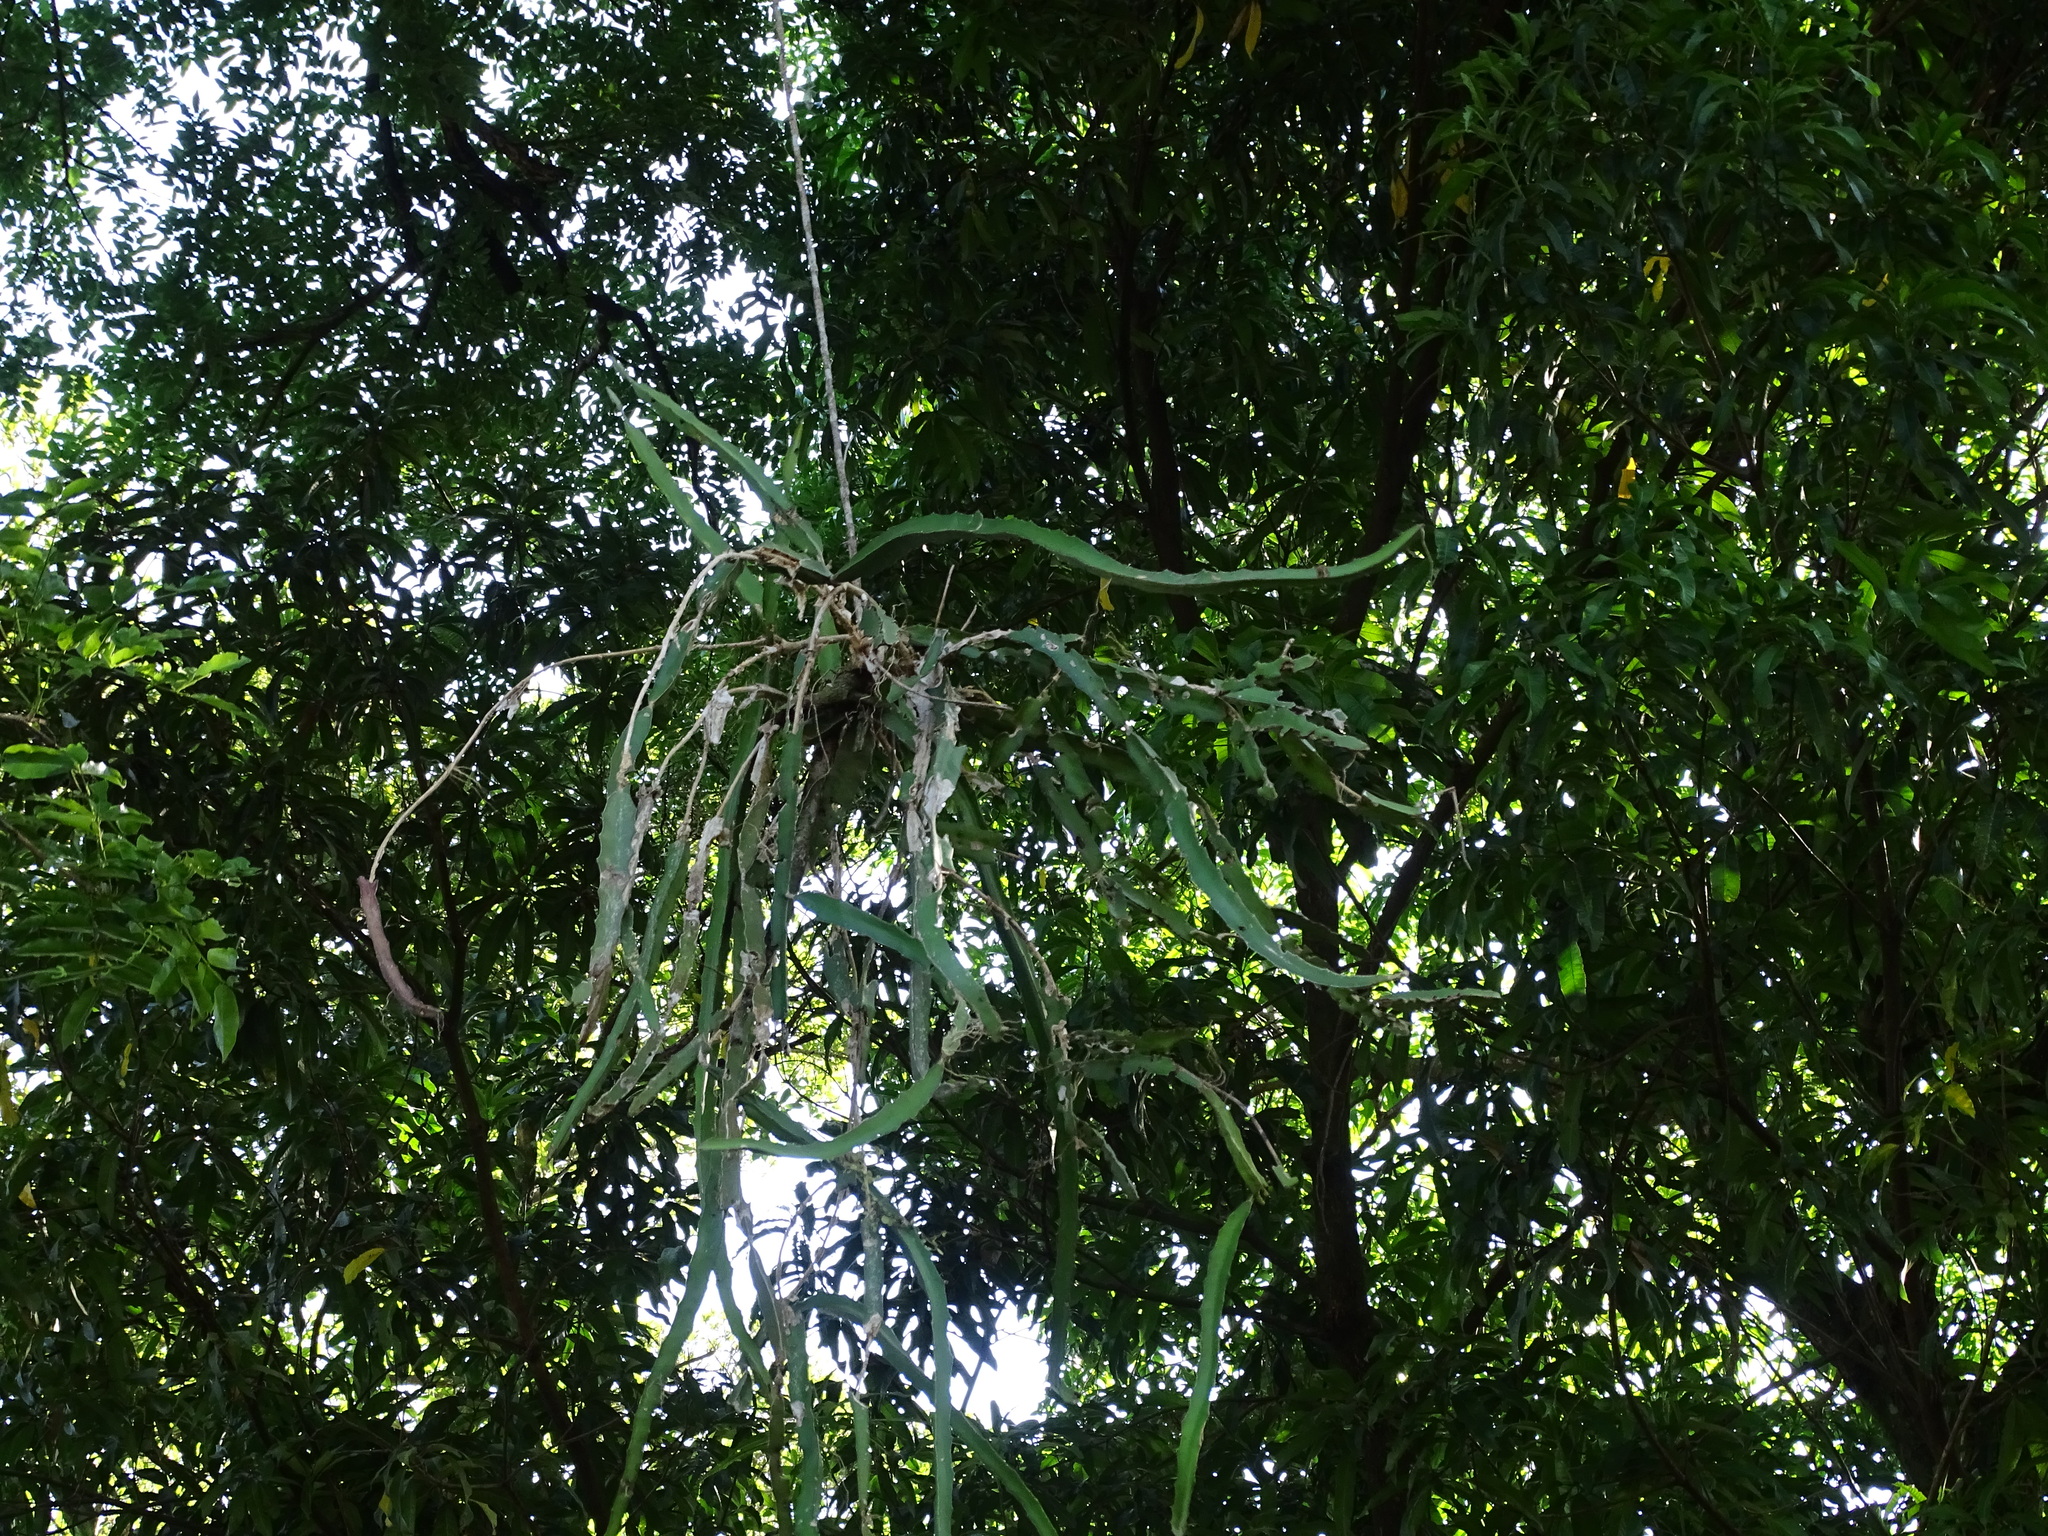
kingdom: Plantae
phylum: Tracheophyta
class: Magnoliopsida
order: Caryophyllales
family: Cactaceae
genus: Selenicereus
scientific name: Selenicereus triangularis
